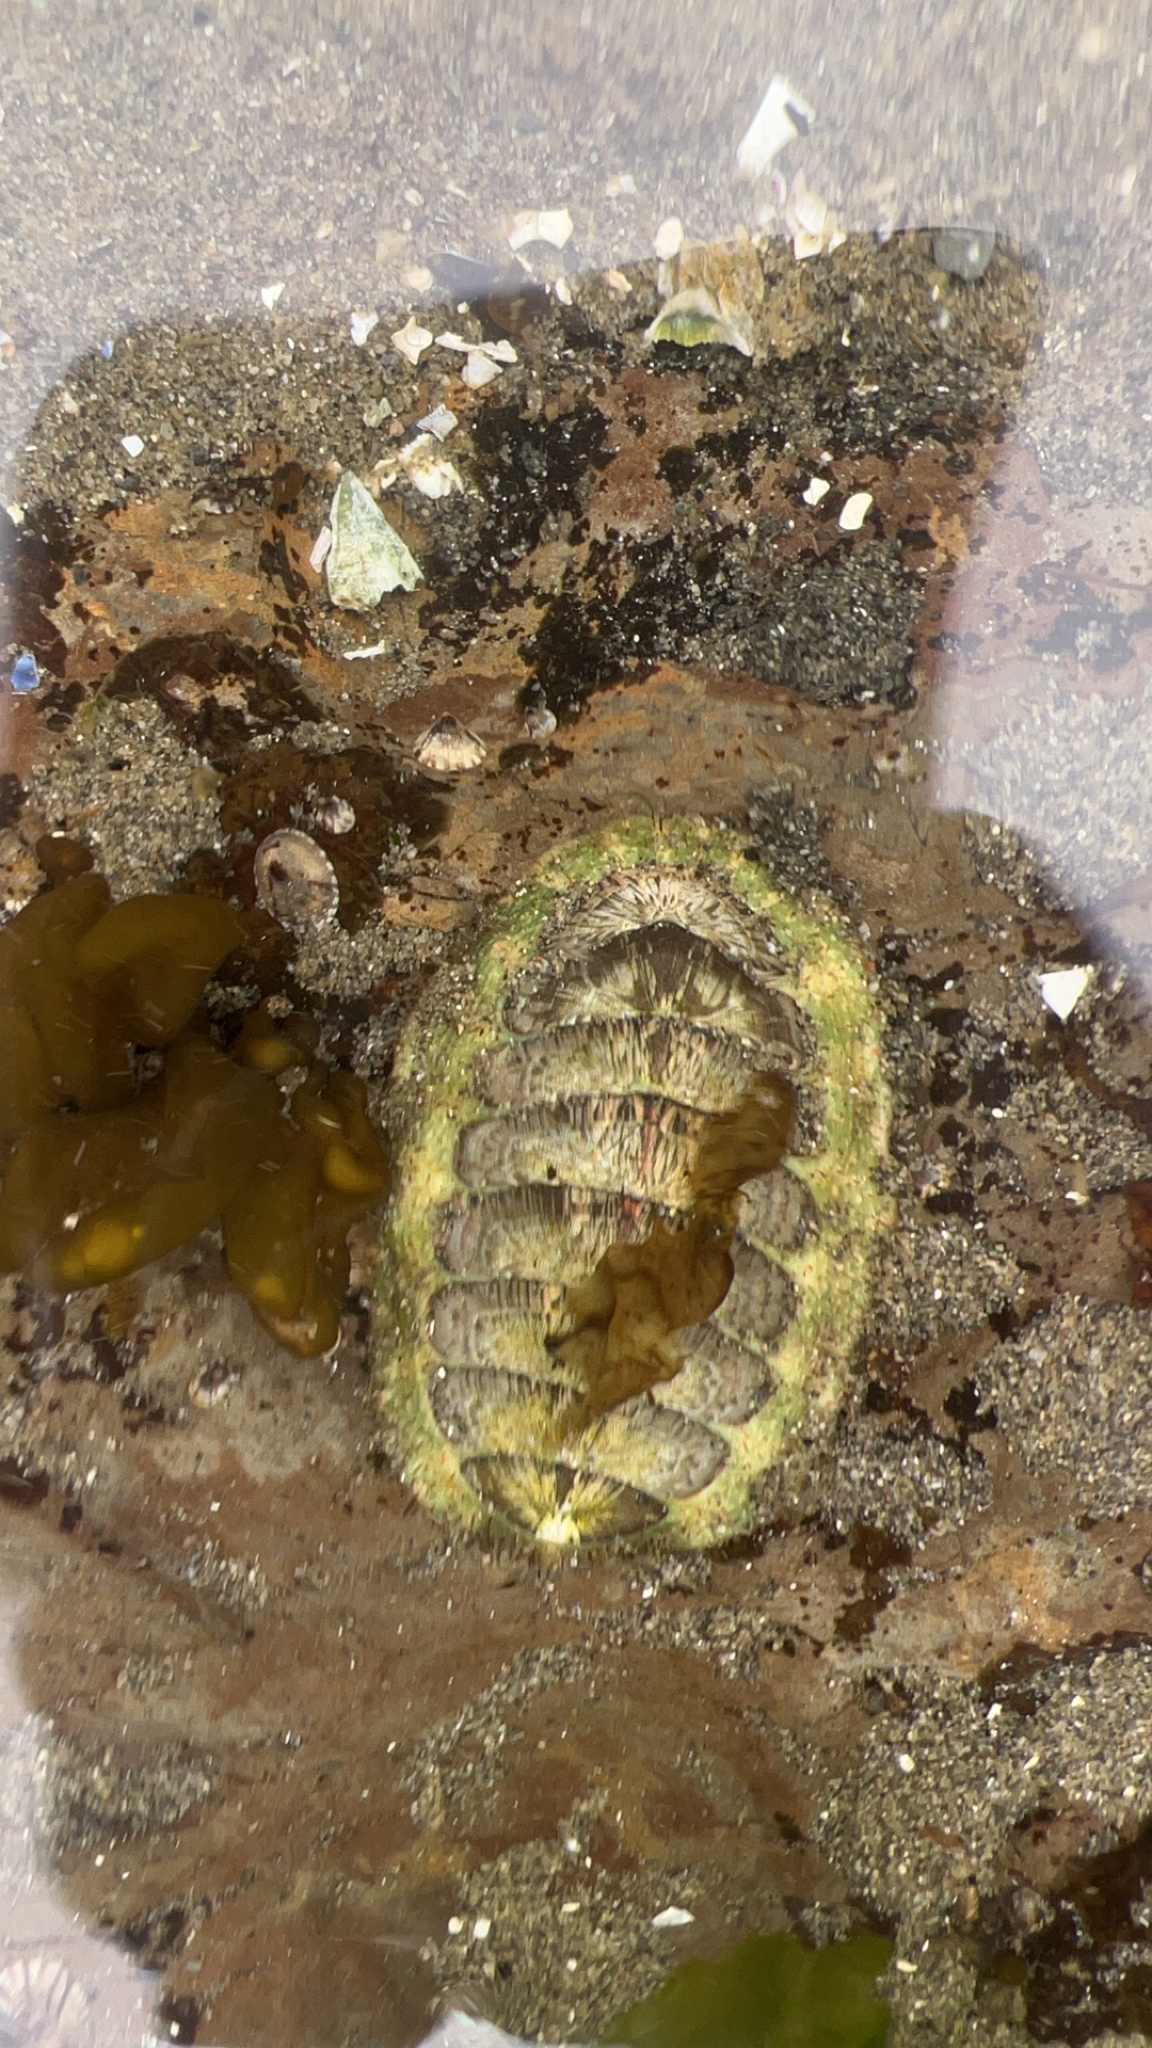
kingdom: Animalia
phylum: Mollusca
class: Polyplacophora
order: Chitonida
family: Mopaliidae
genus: Mopalia
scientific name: Mopalia lignosa
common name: Woody chiton
